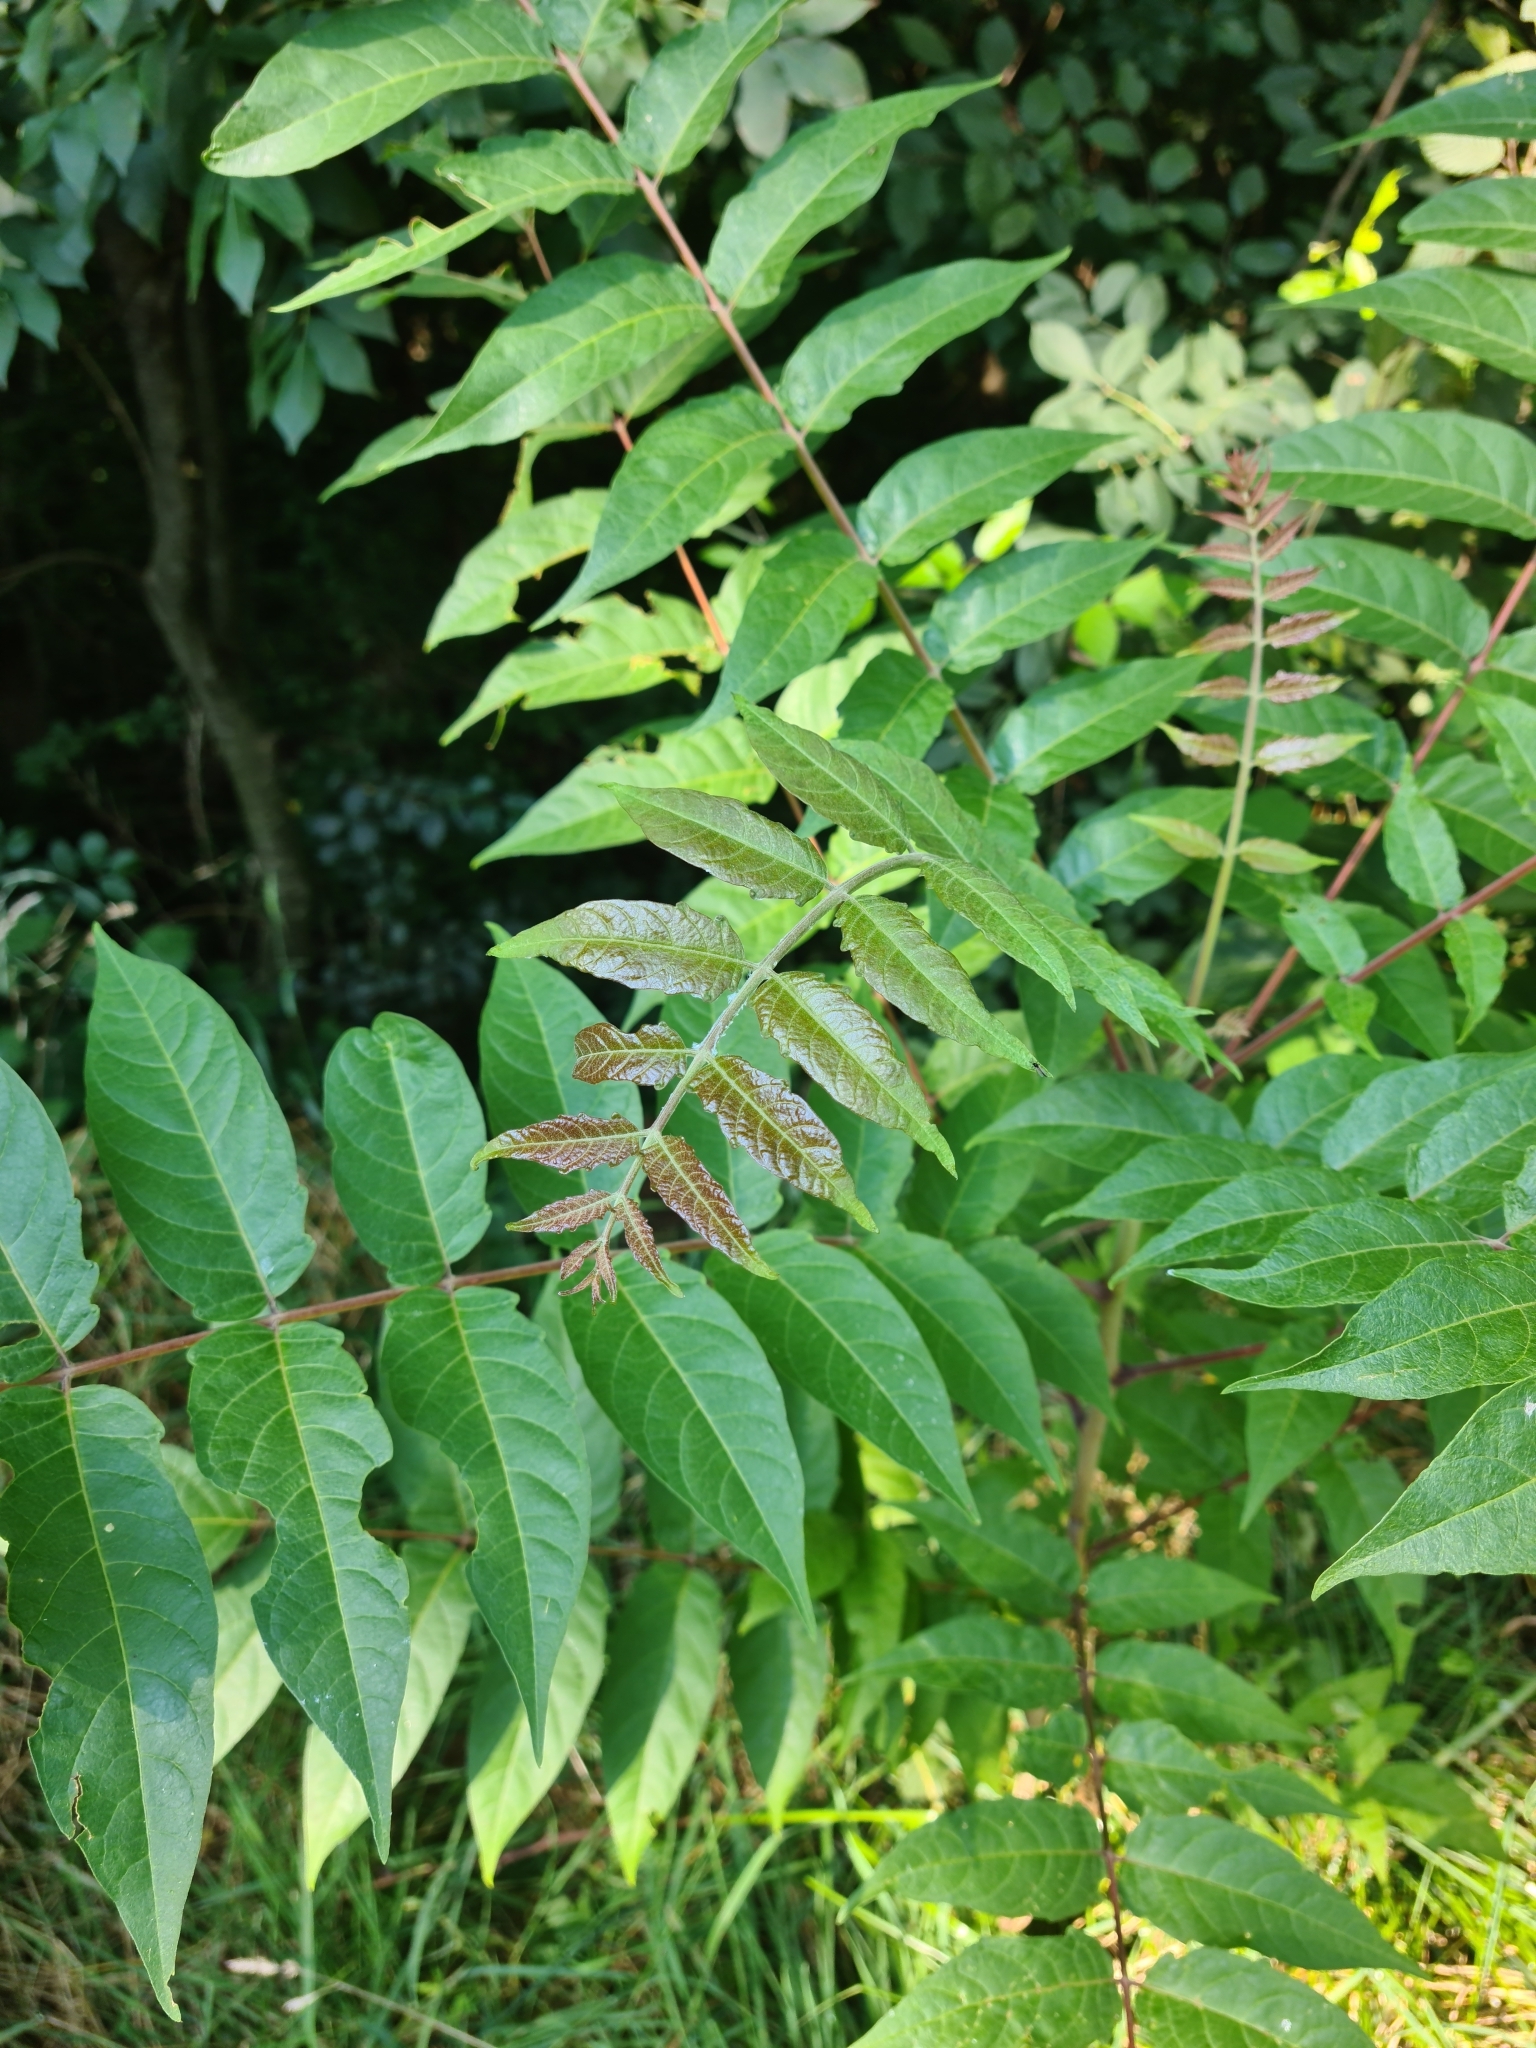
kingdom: Plantae
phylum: Tracheophyta
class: Magnoliopsida
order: Sapindales
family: Simaroubaceae
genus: Ailanthus
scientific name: Ailanthus altissima
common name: Tree-of-heaven
